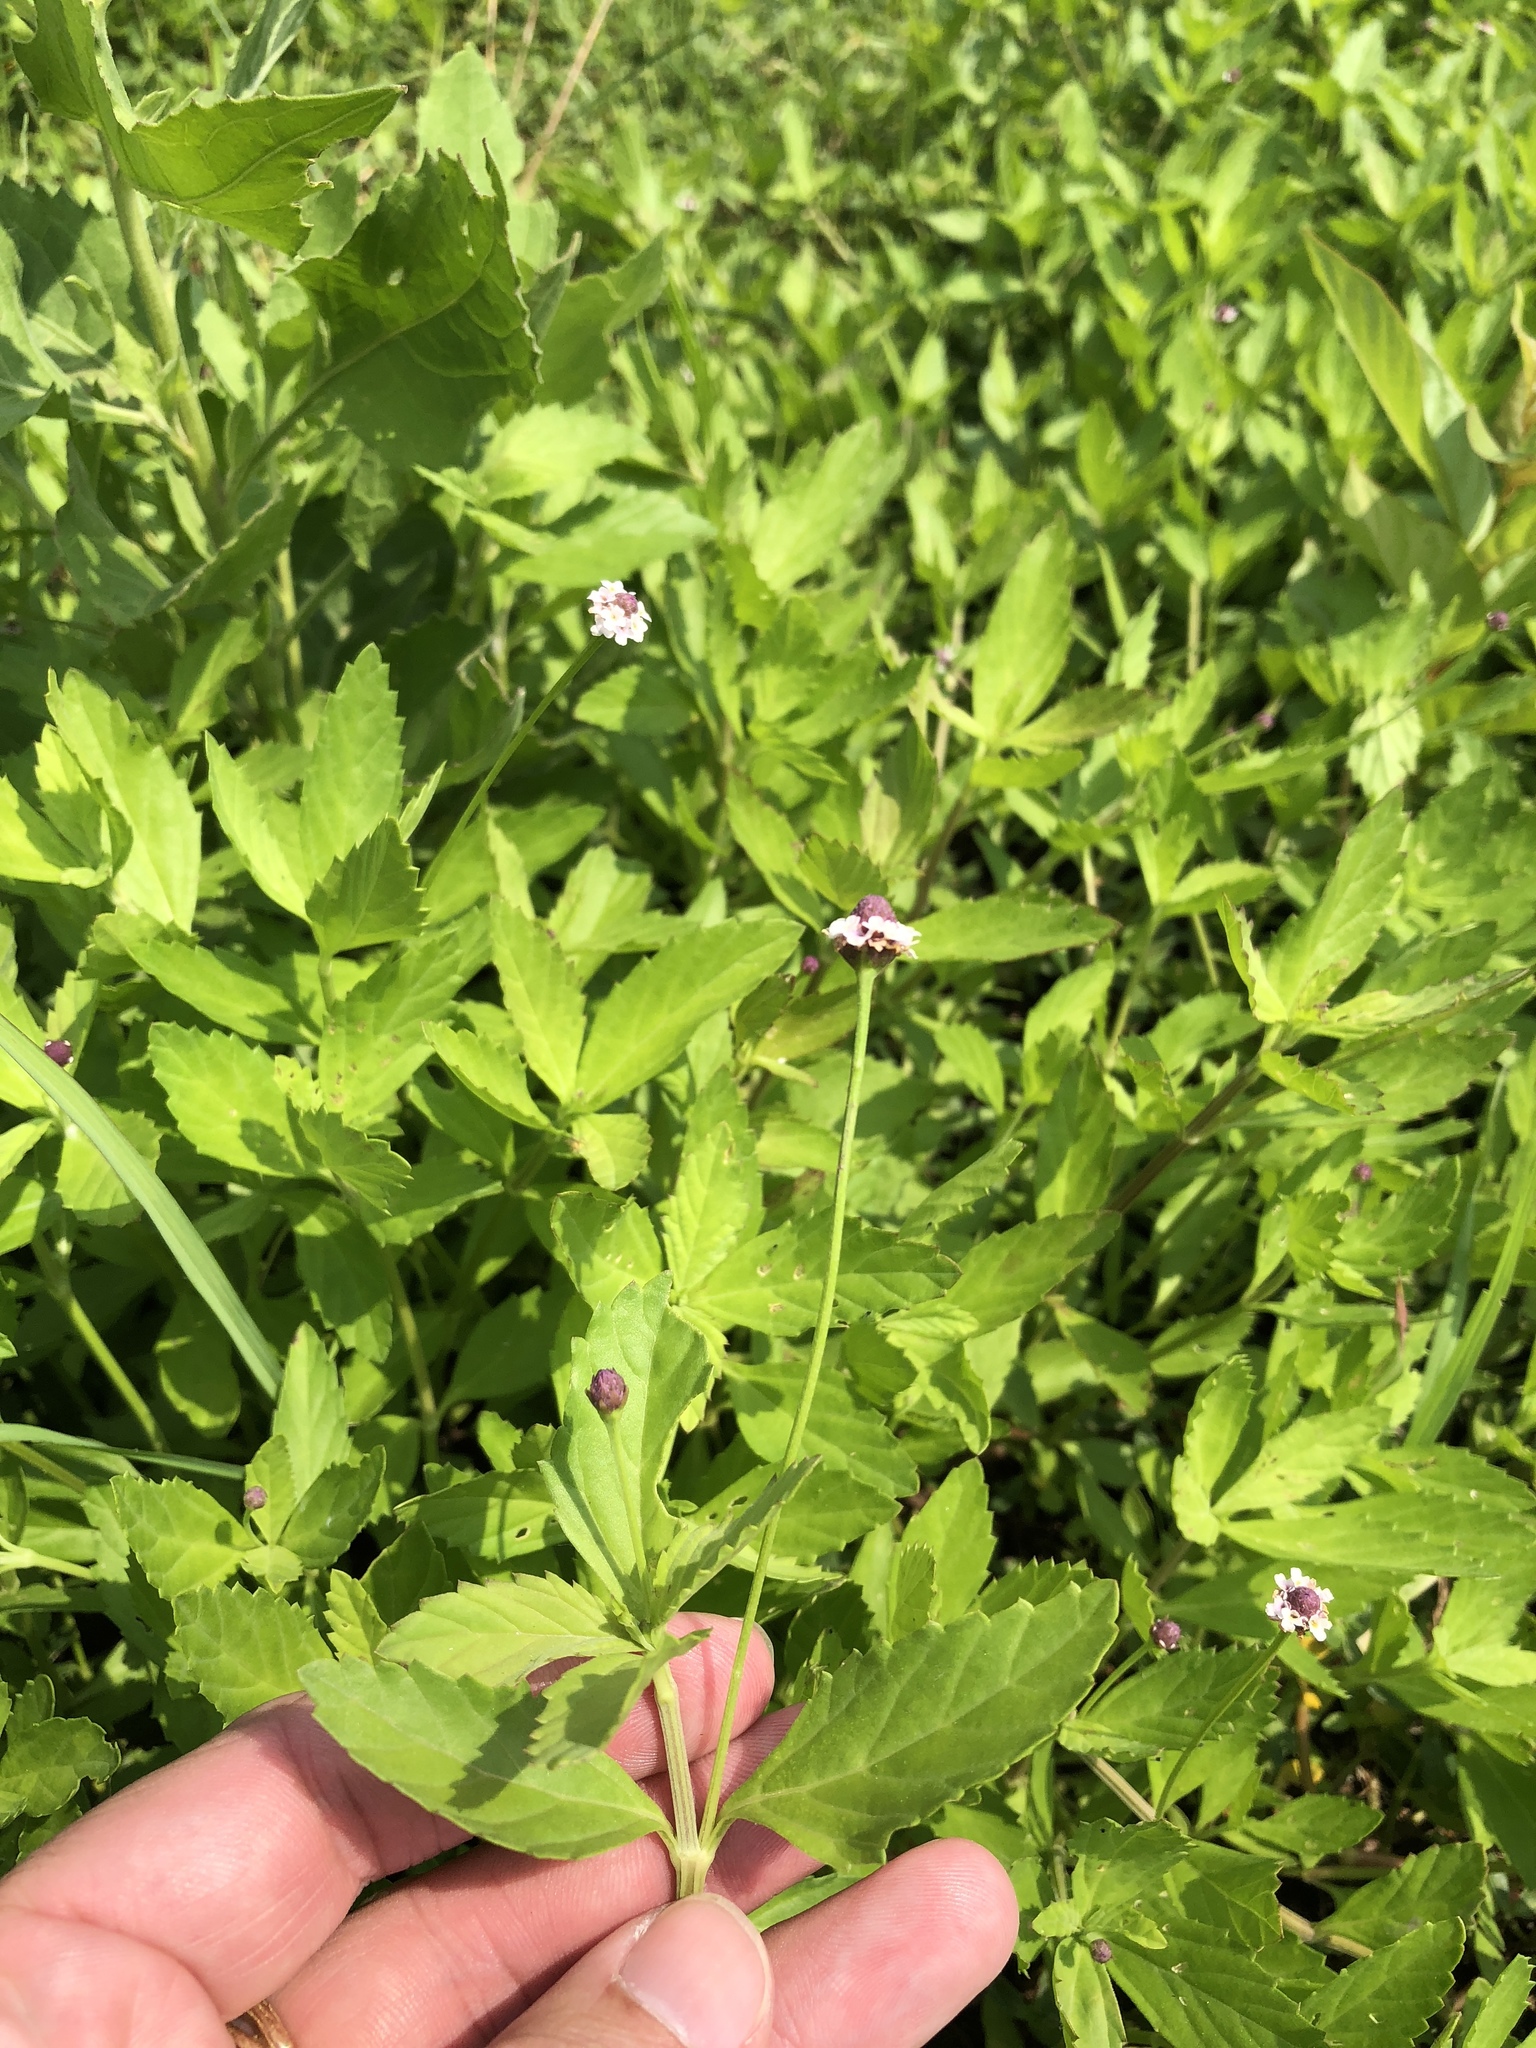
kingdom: Plantae
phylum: Tracheophyta
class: Magnoliopsida
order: Lamiales
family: Verbenaceae
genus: Phyla
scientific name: Phyla lanceolata
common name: Northern fogfruit
